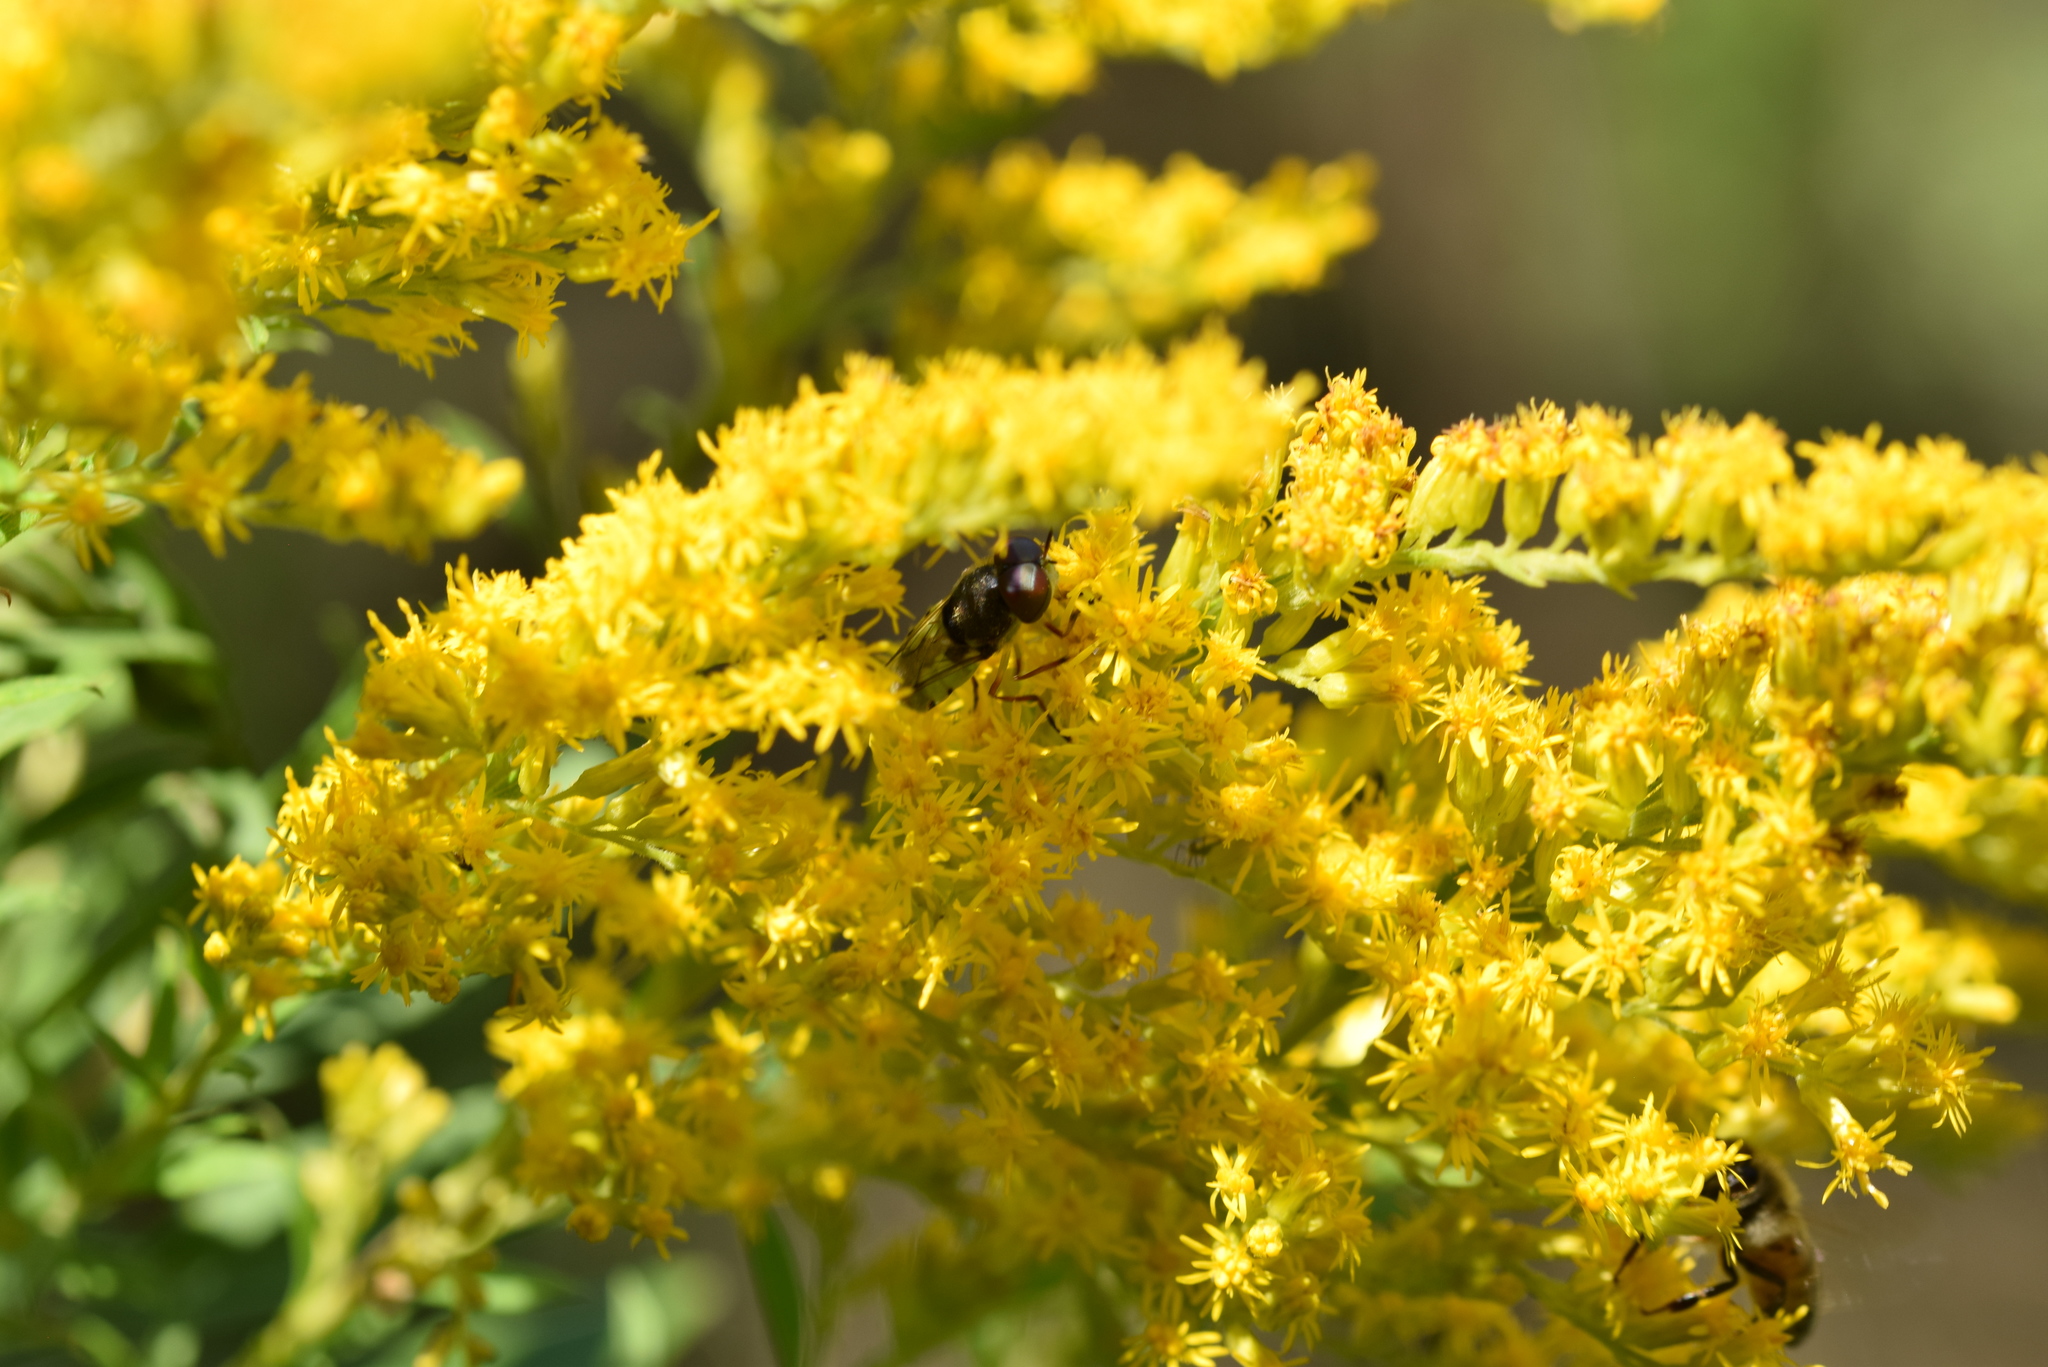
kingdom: Animalia
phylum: Arthropoda
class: Insecta
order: Diptera
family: Stratiomyidae
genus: Hedriodiscus
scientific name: Hedriodiscus truquii
